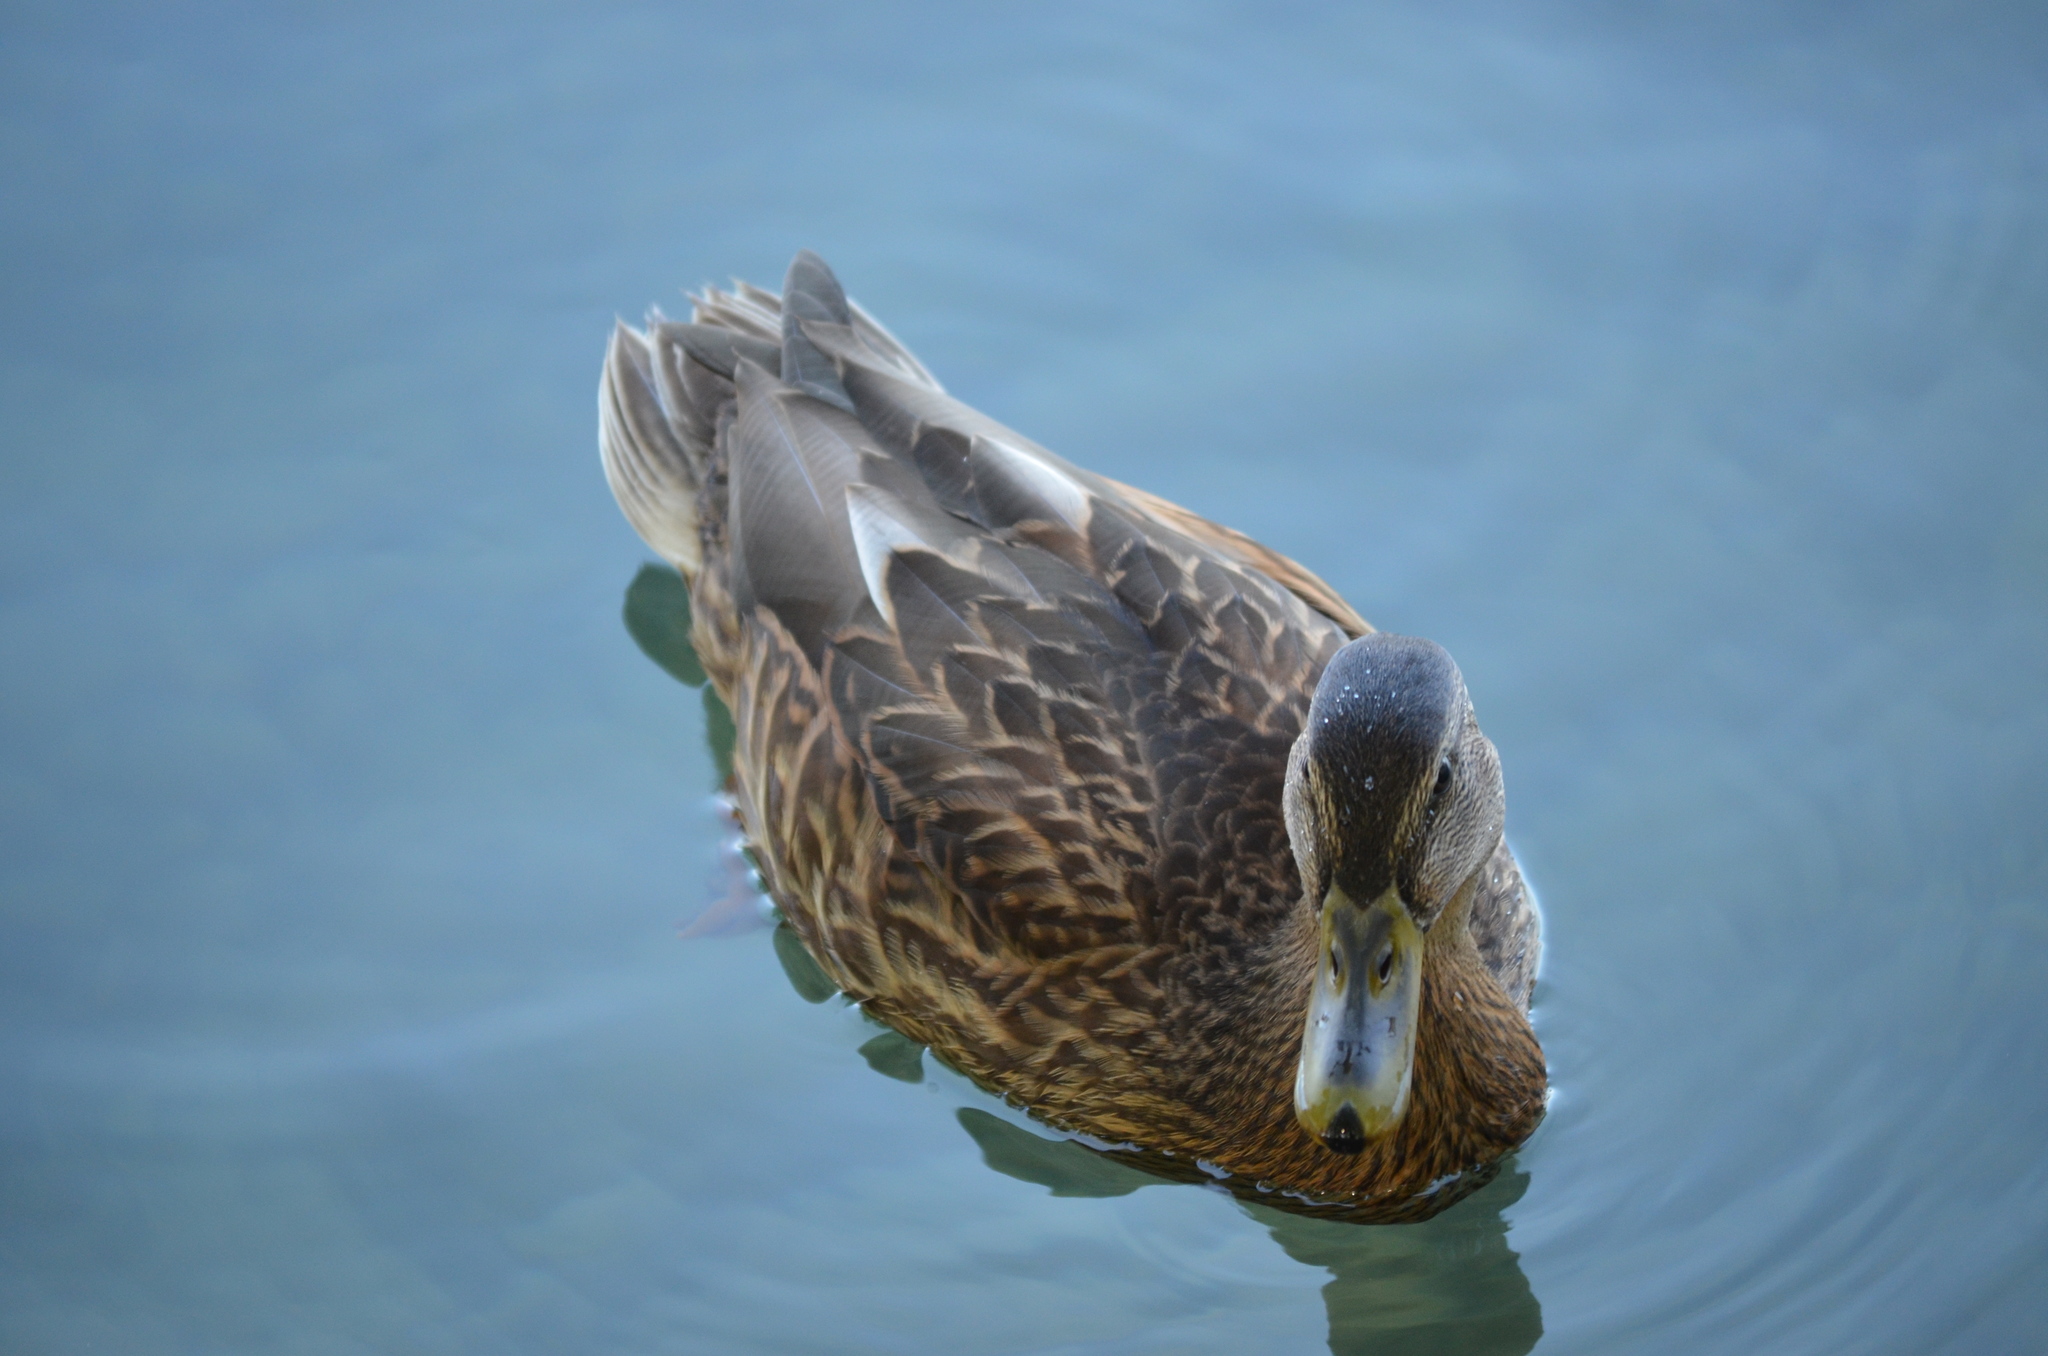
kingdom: Animalia
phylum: Chordata
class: Aves
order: Anseriformes
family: Anatidae
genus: Anas
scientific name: Anas platyrhynchos
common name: Mallard
